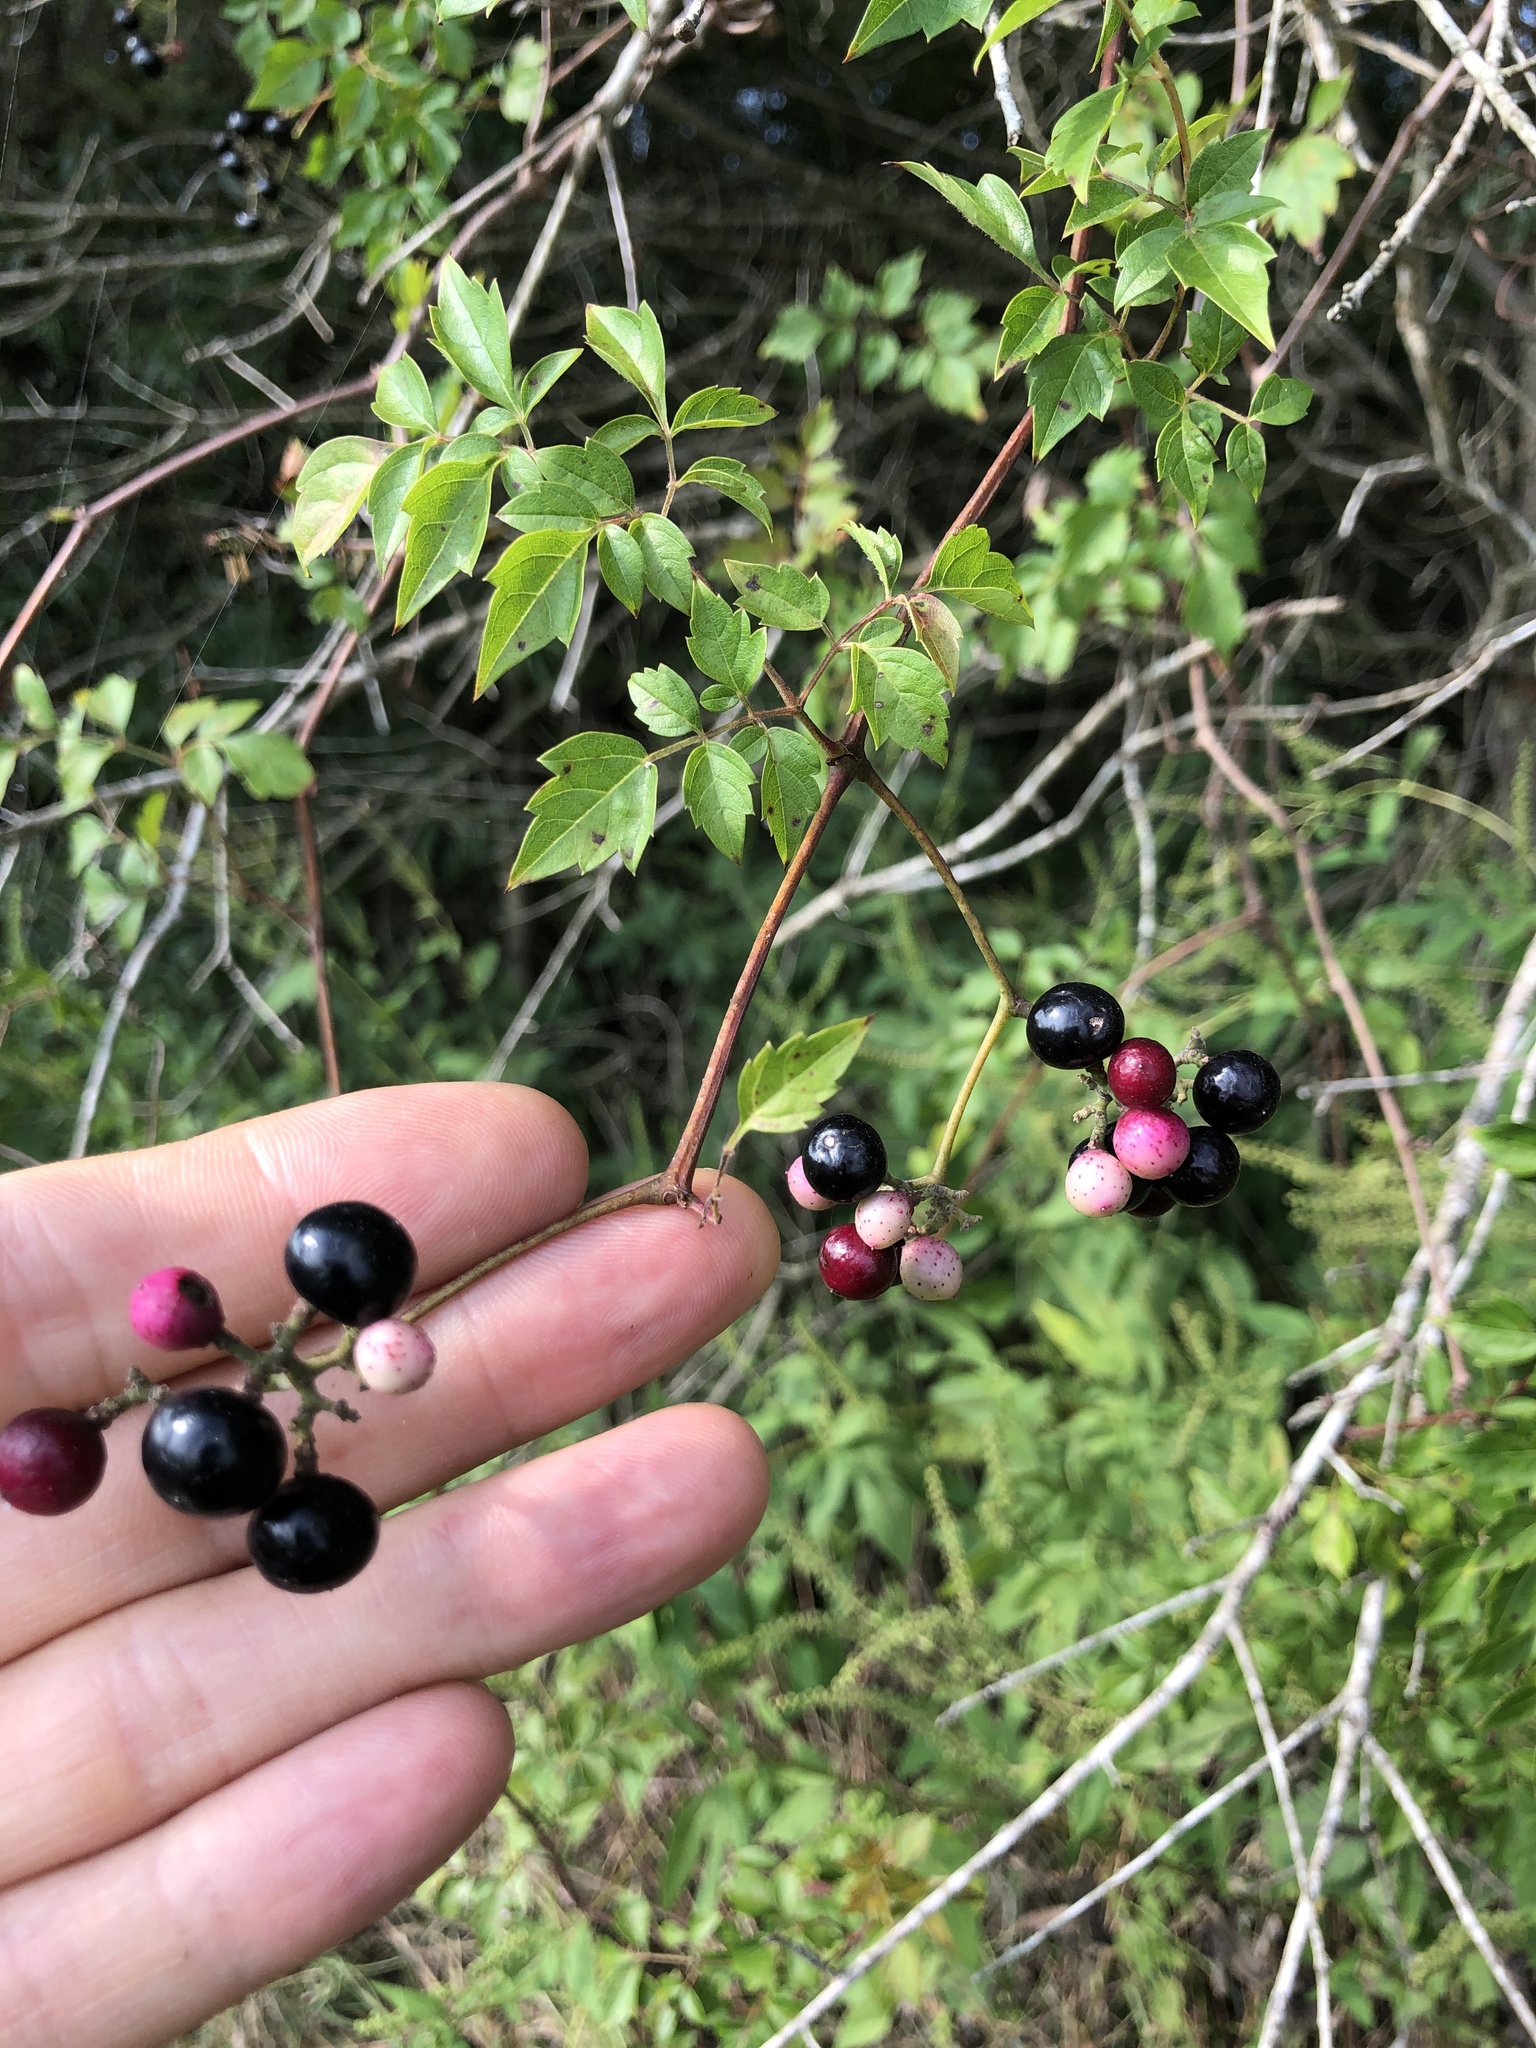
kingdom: Plantae
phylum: Tracheophyta
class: Magnoliopsida
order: Vitales
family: Vitaceae
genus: Nekemias
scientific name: Nekemias arborea
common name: Peppervine
